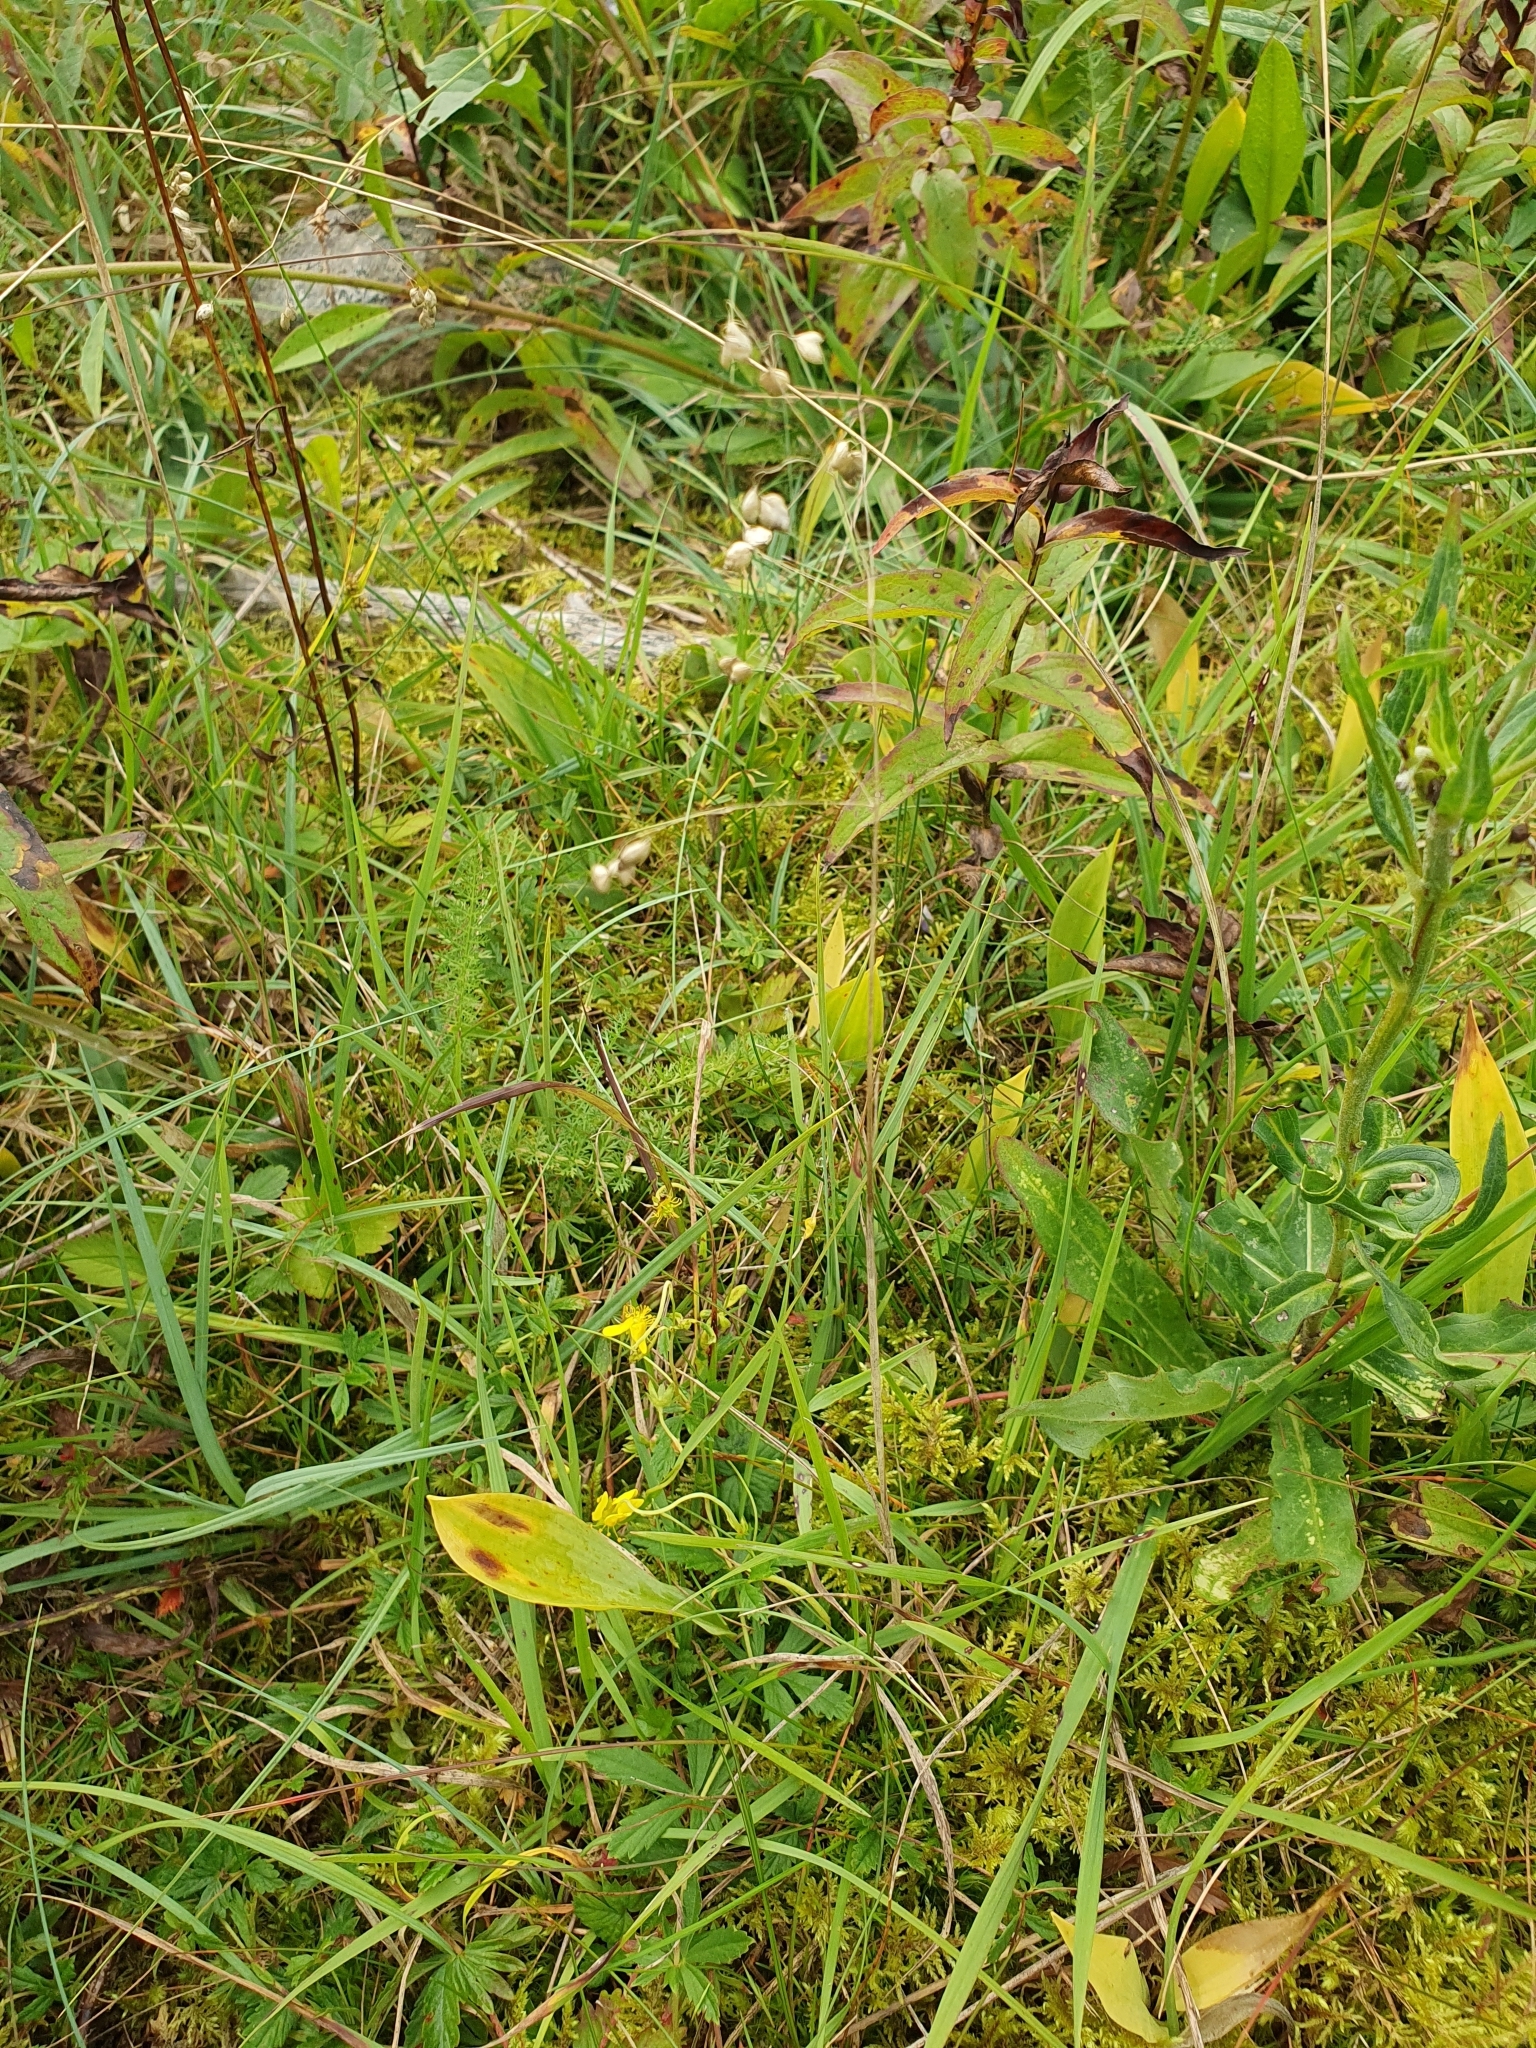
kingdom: Plantae
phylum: Tracheophyta
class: Liliopsida
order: Poales
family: Poaceae
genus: Briza
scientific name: Briza media
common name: Quaking grass
